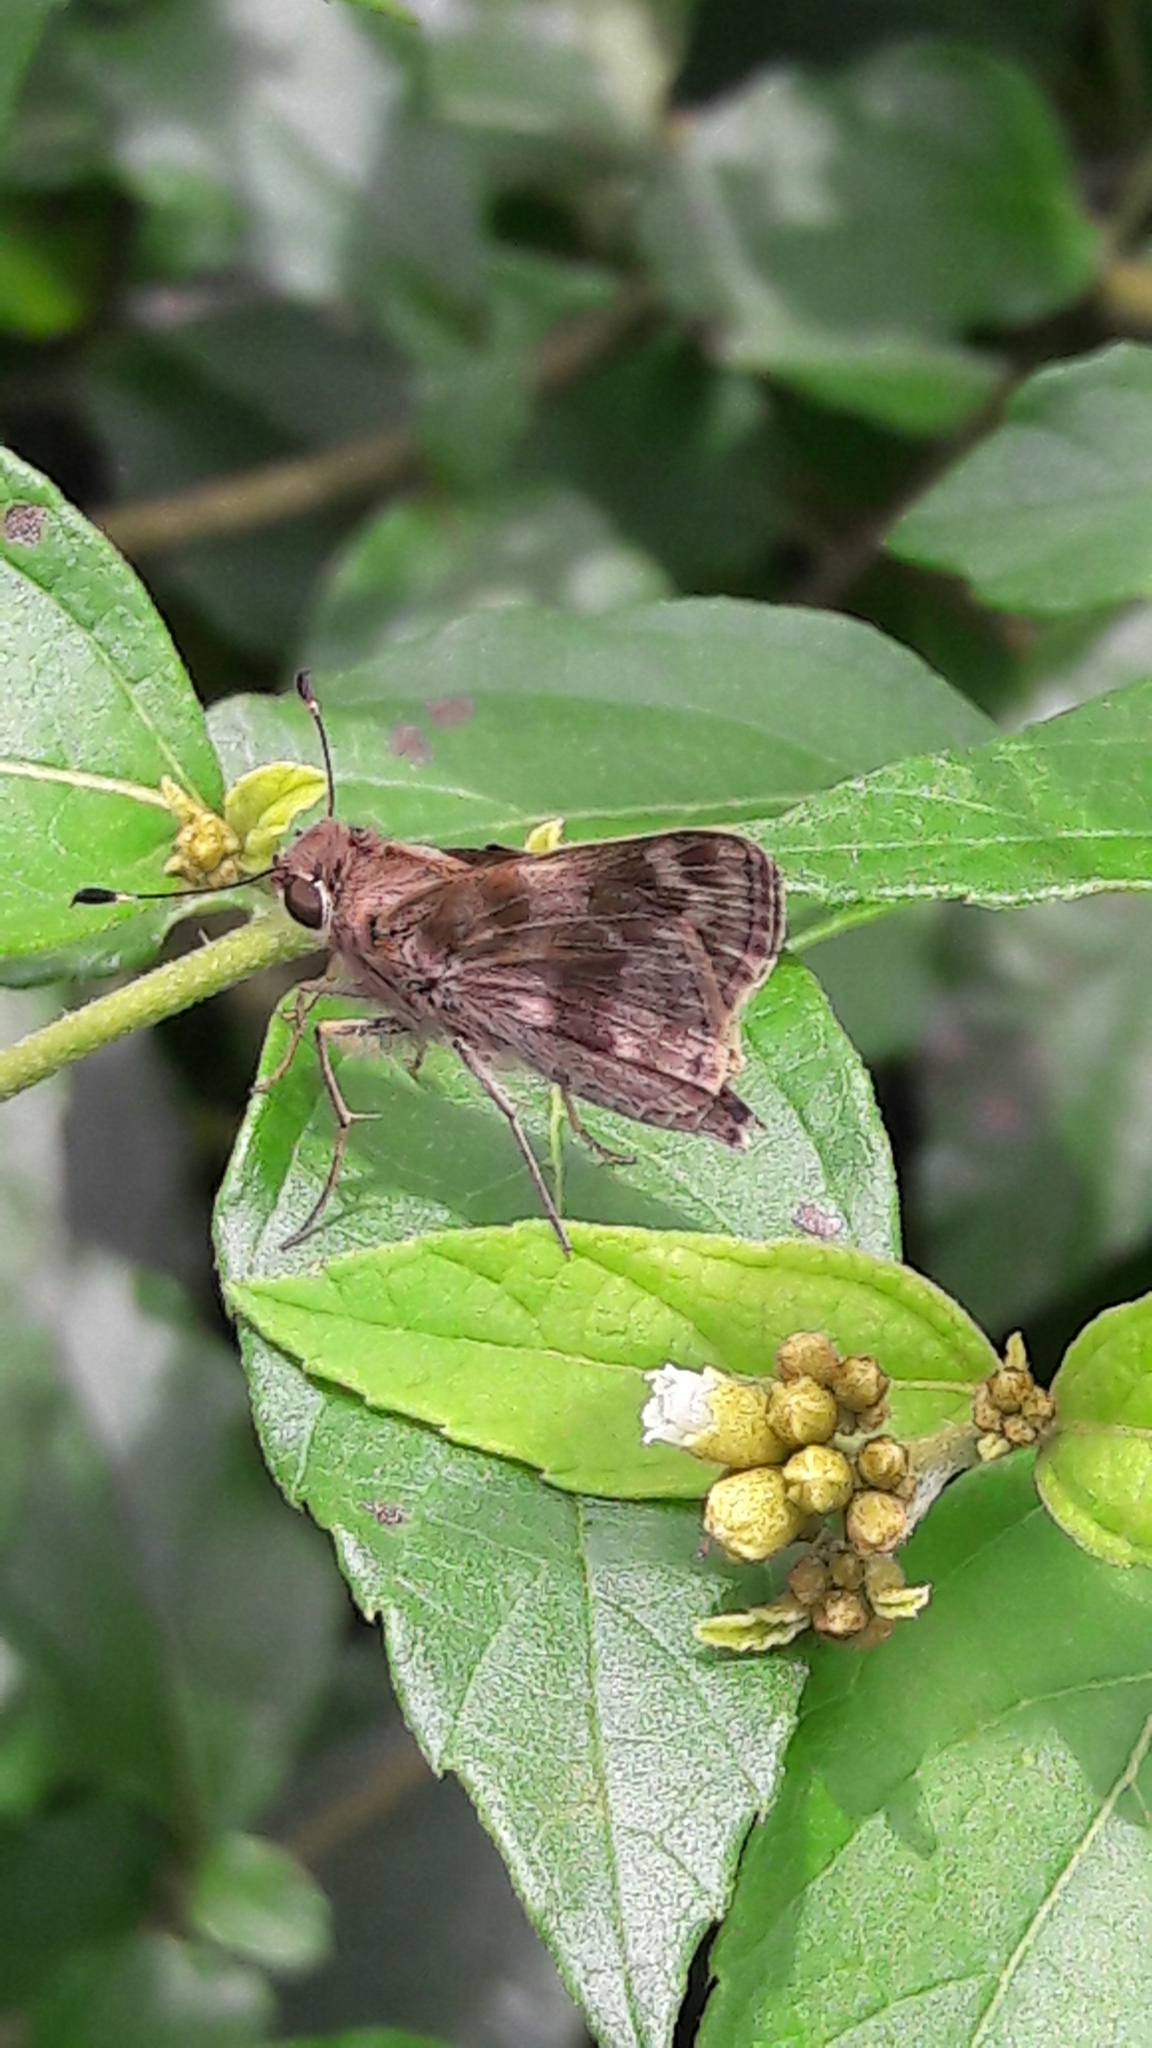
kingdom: Animalia
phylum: Arthropoda
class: Insecta
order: Lepidoptera
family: Hesperiidae
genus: Pompeius
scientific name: Pompeius pompeius
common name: Pompeius skipper
